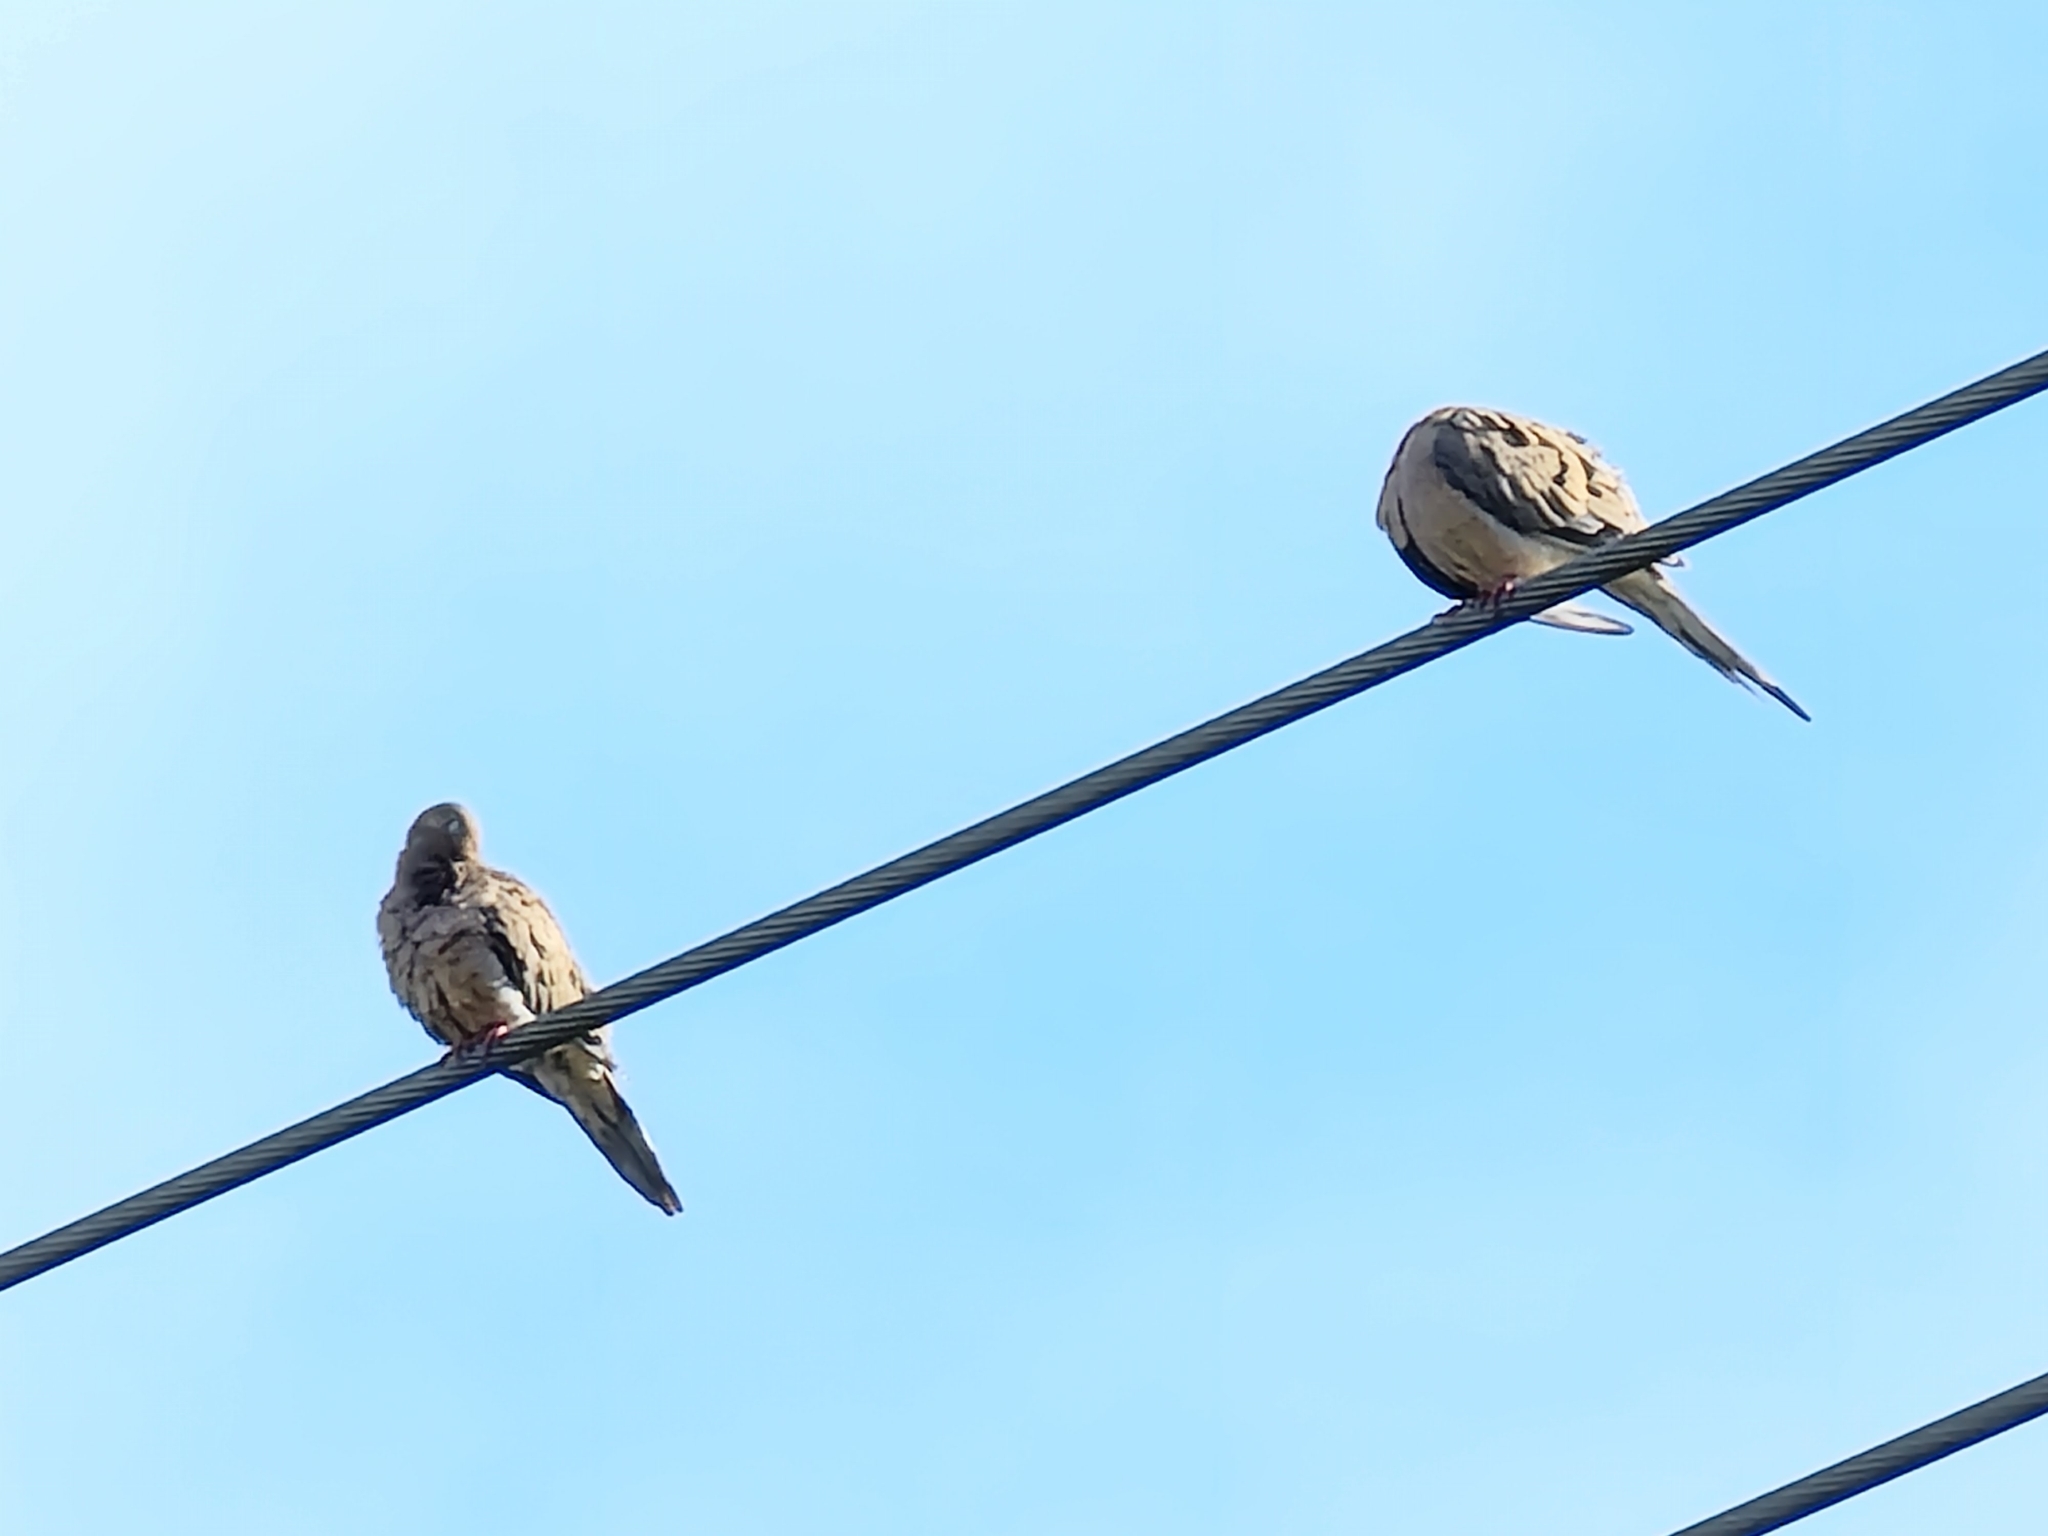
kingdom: Animalia
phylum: Chordata
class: Aves
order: Columbiformes
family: Columbidae
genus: Zenaida
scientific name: Zenaida macroura
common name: Mourning dove
